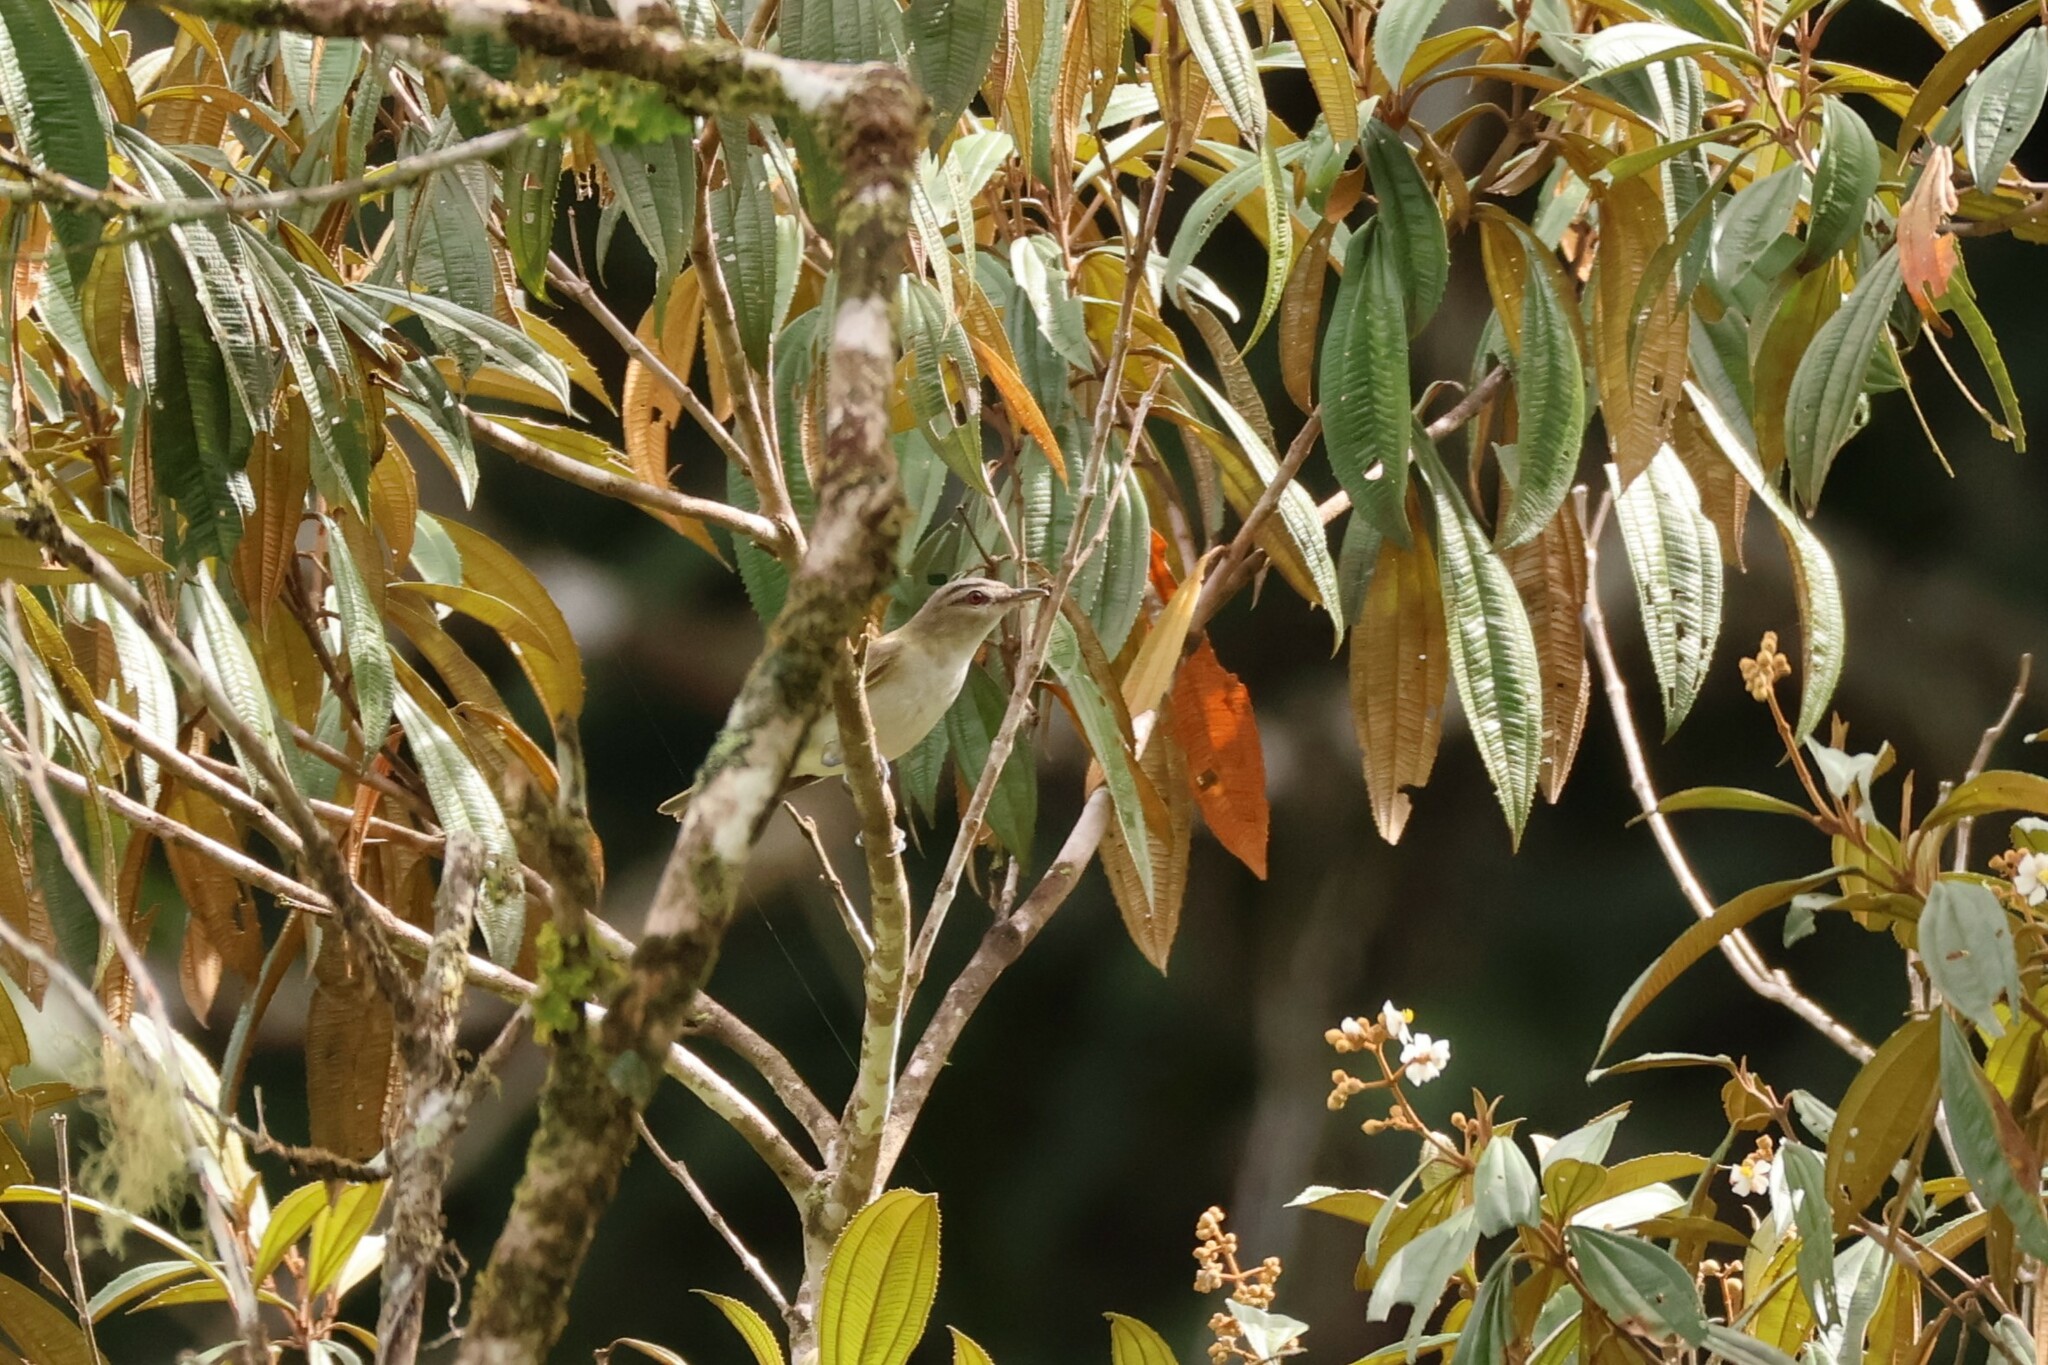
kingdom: Animalia
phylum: Chordata
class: Aves
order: Passeriformes
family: Vireonidae
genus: Vireo
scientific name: Vireo olivaceus
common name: Red-eyed vireo
